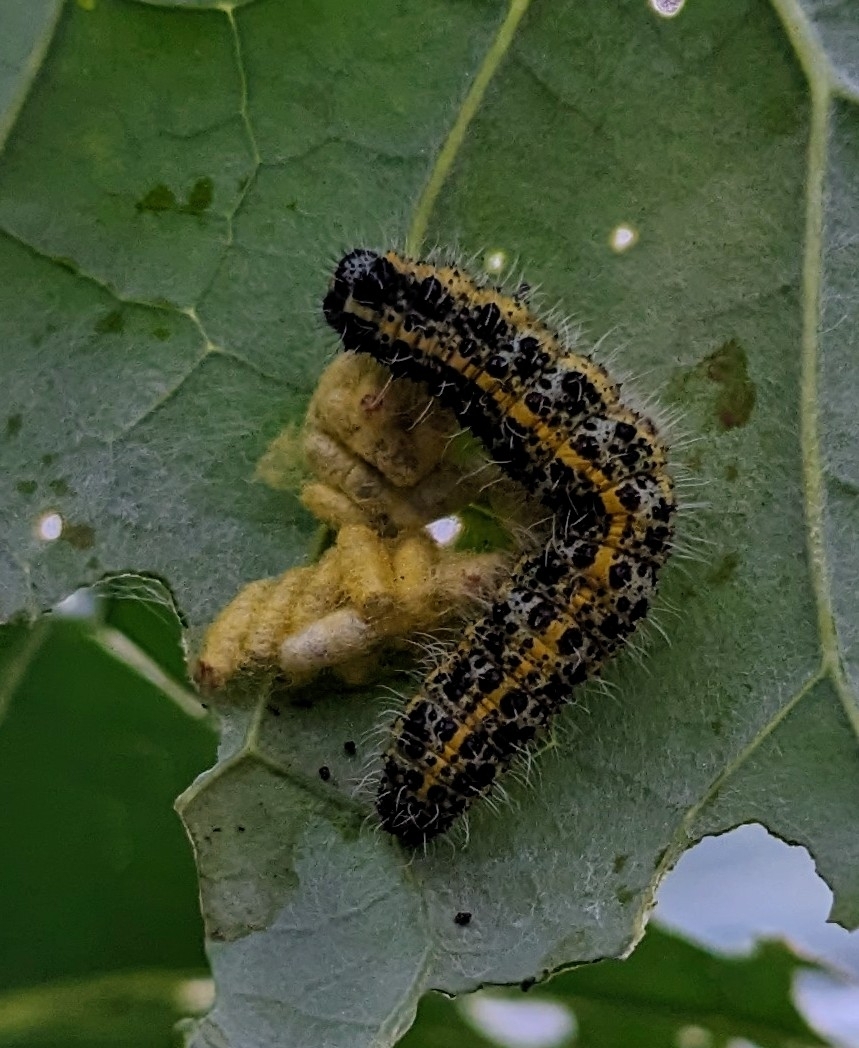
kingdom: Animalia
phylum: Arthropoda
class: Insecta
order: Lepidoptera
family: Pieridae
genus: Pieris
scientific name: Pieris brassicae
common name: Large white
